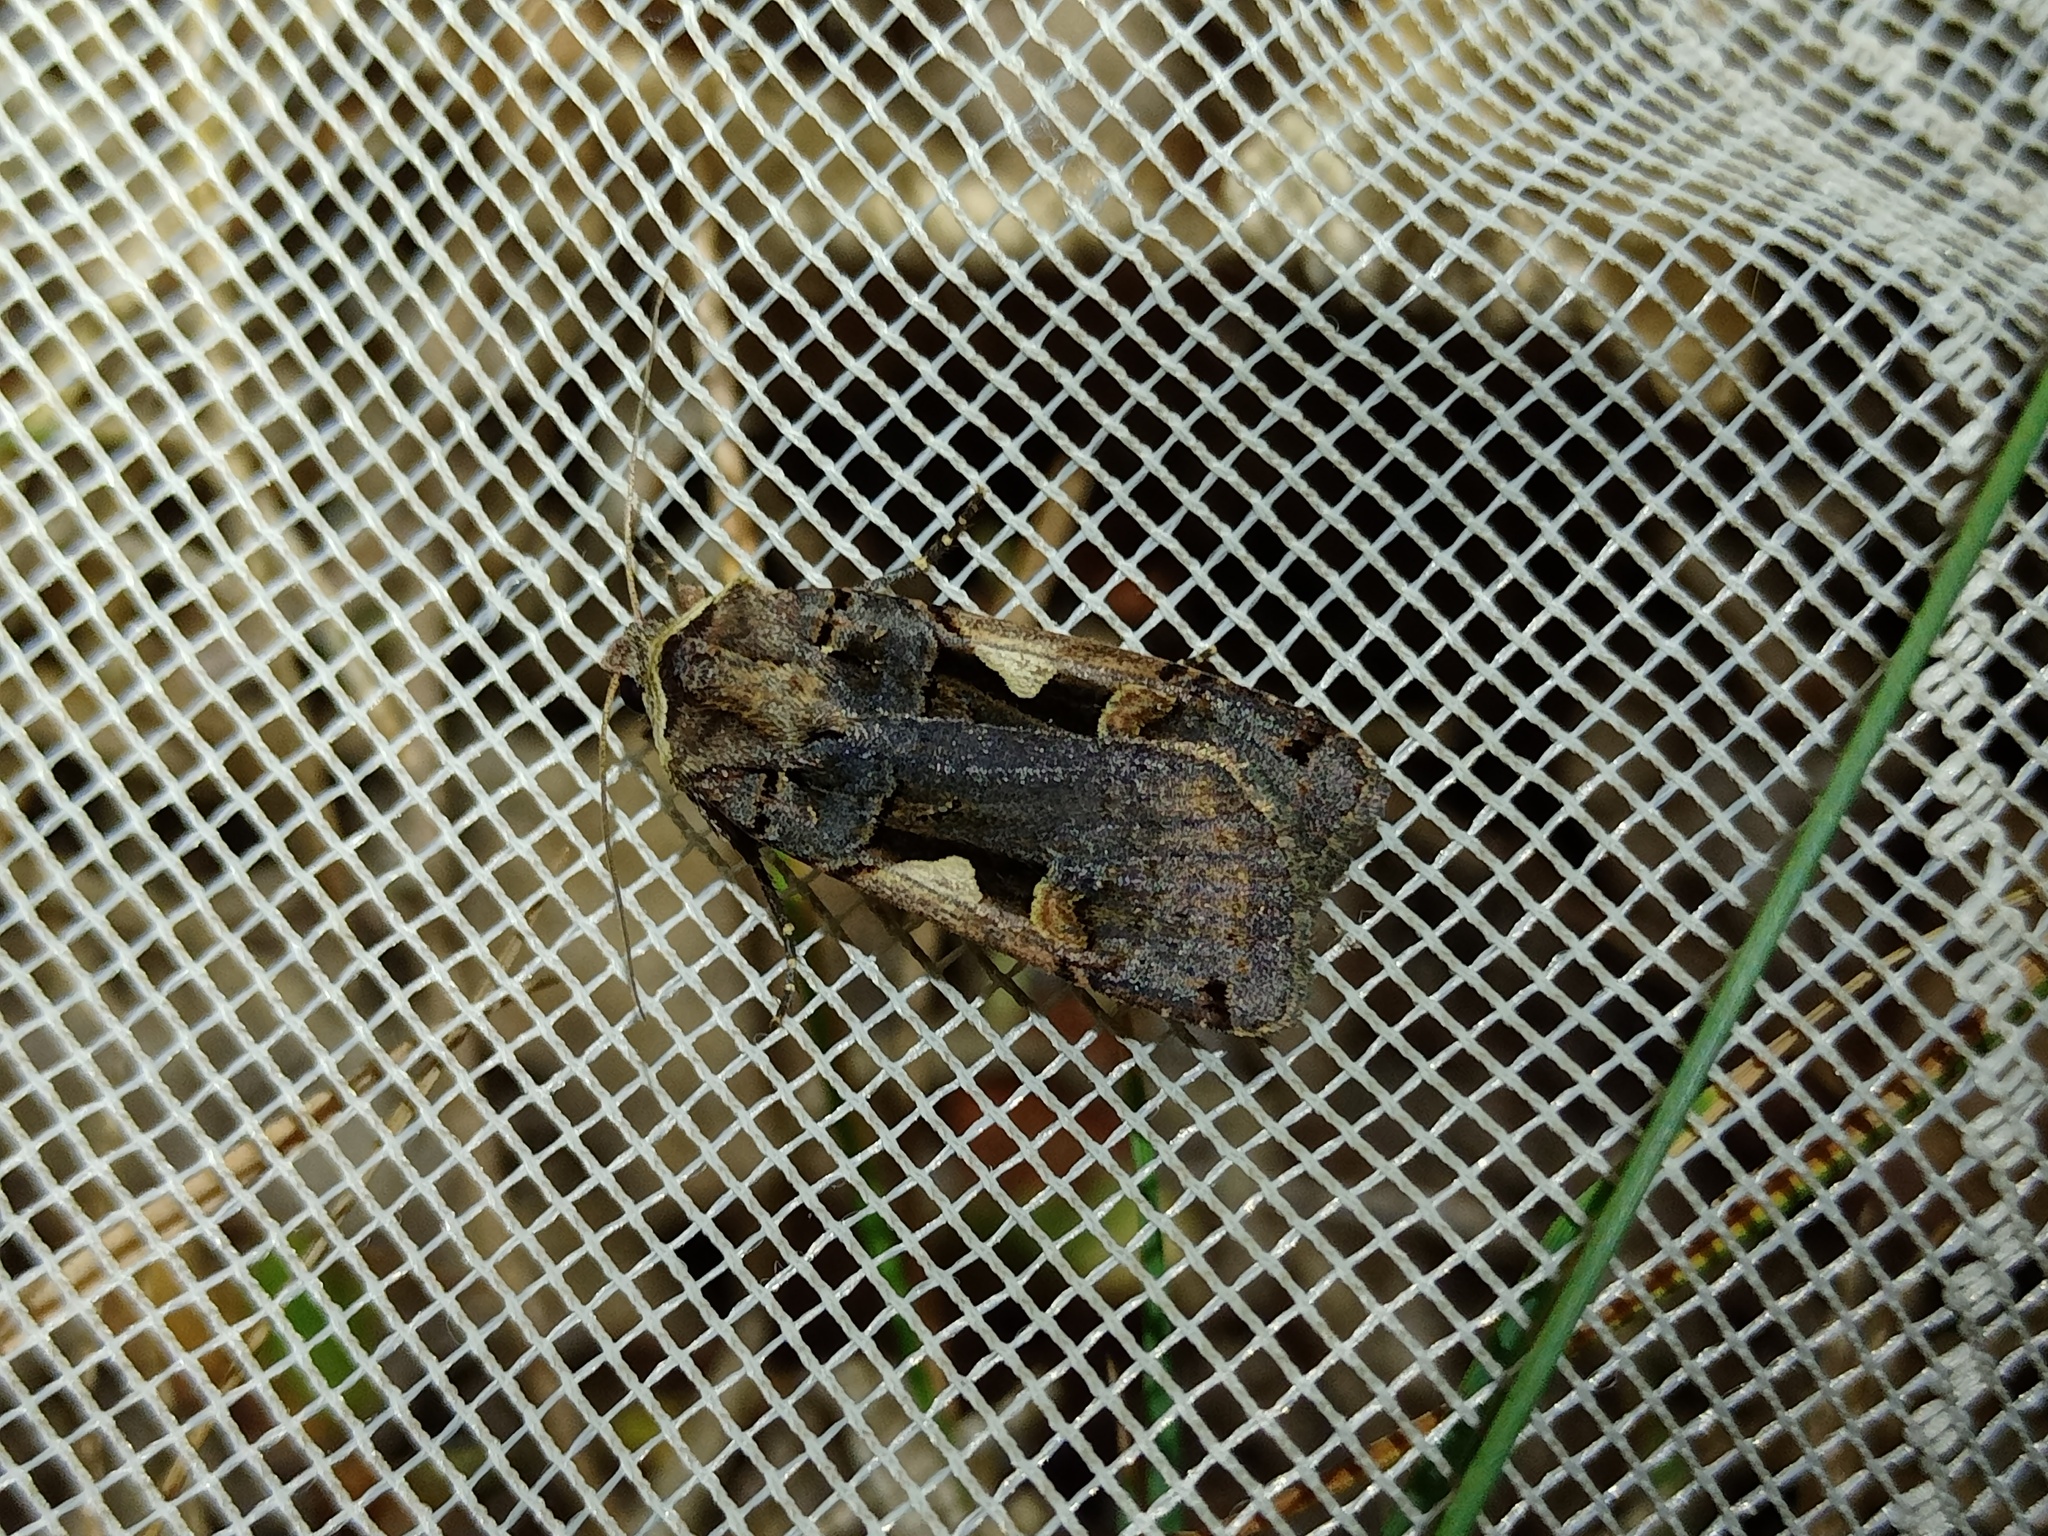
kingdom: Animalia
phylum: Arthropoda
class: Insecta
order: Lepidoptera
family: Noctuidae
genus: Xestia
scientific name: Xestia c-nigrum
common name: Setaceous hebrew character
